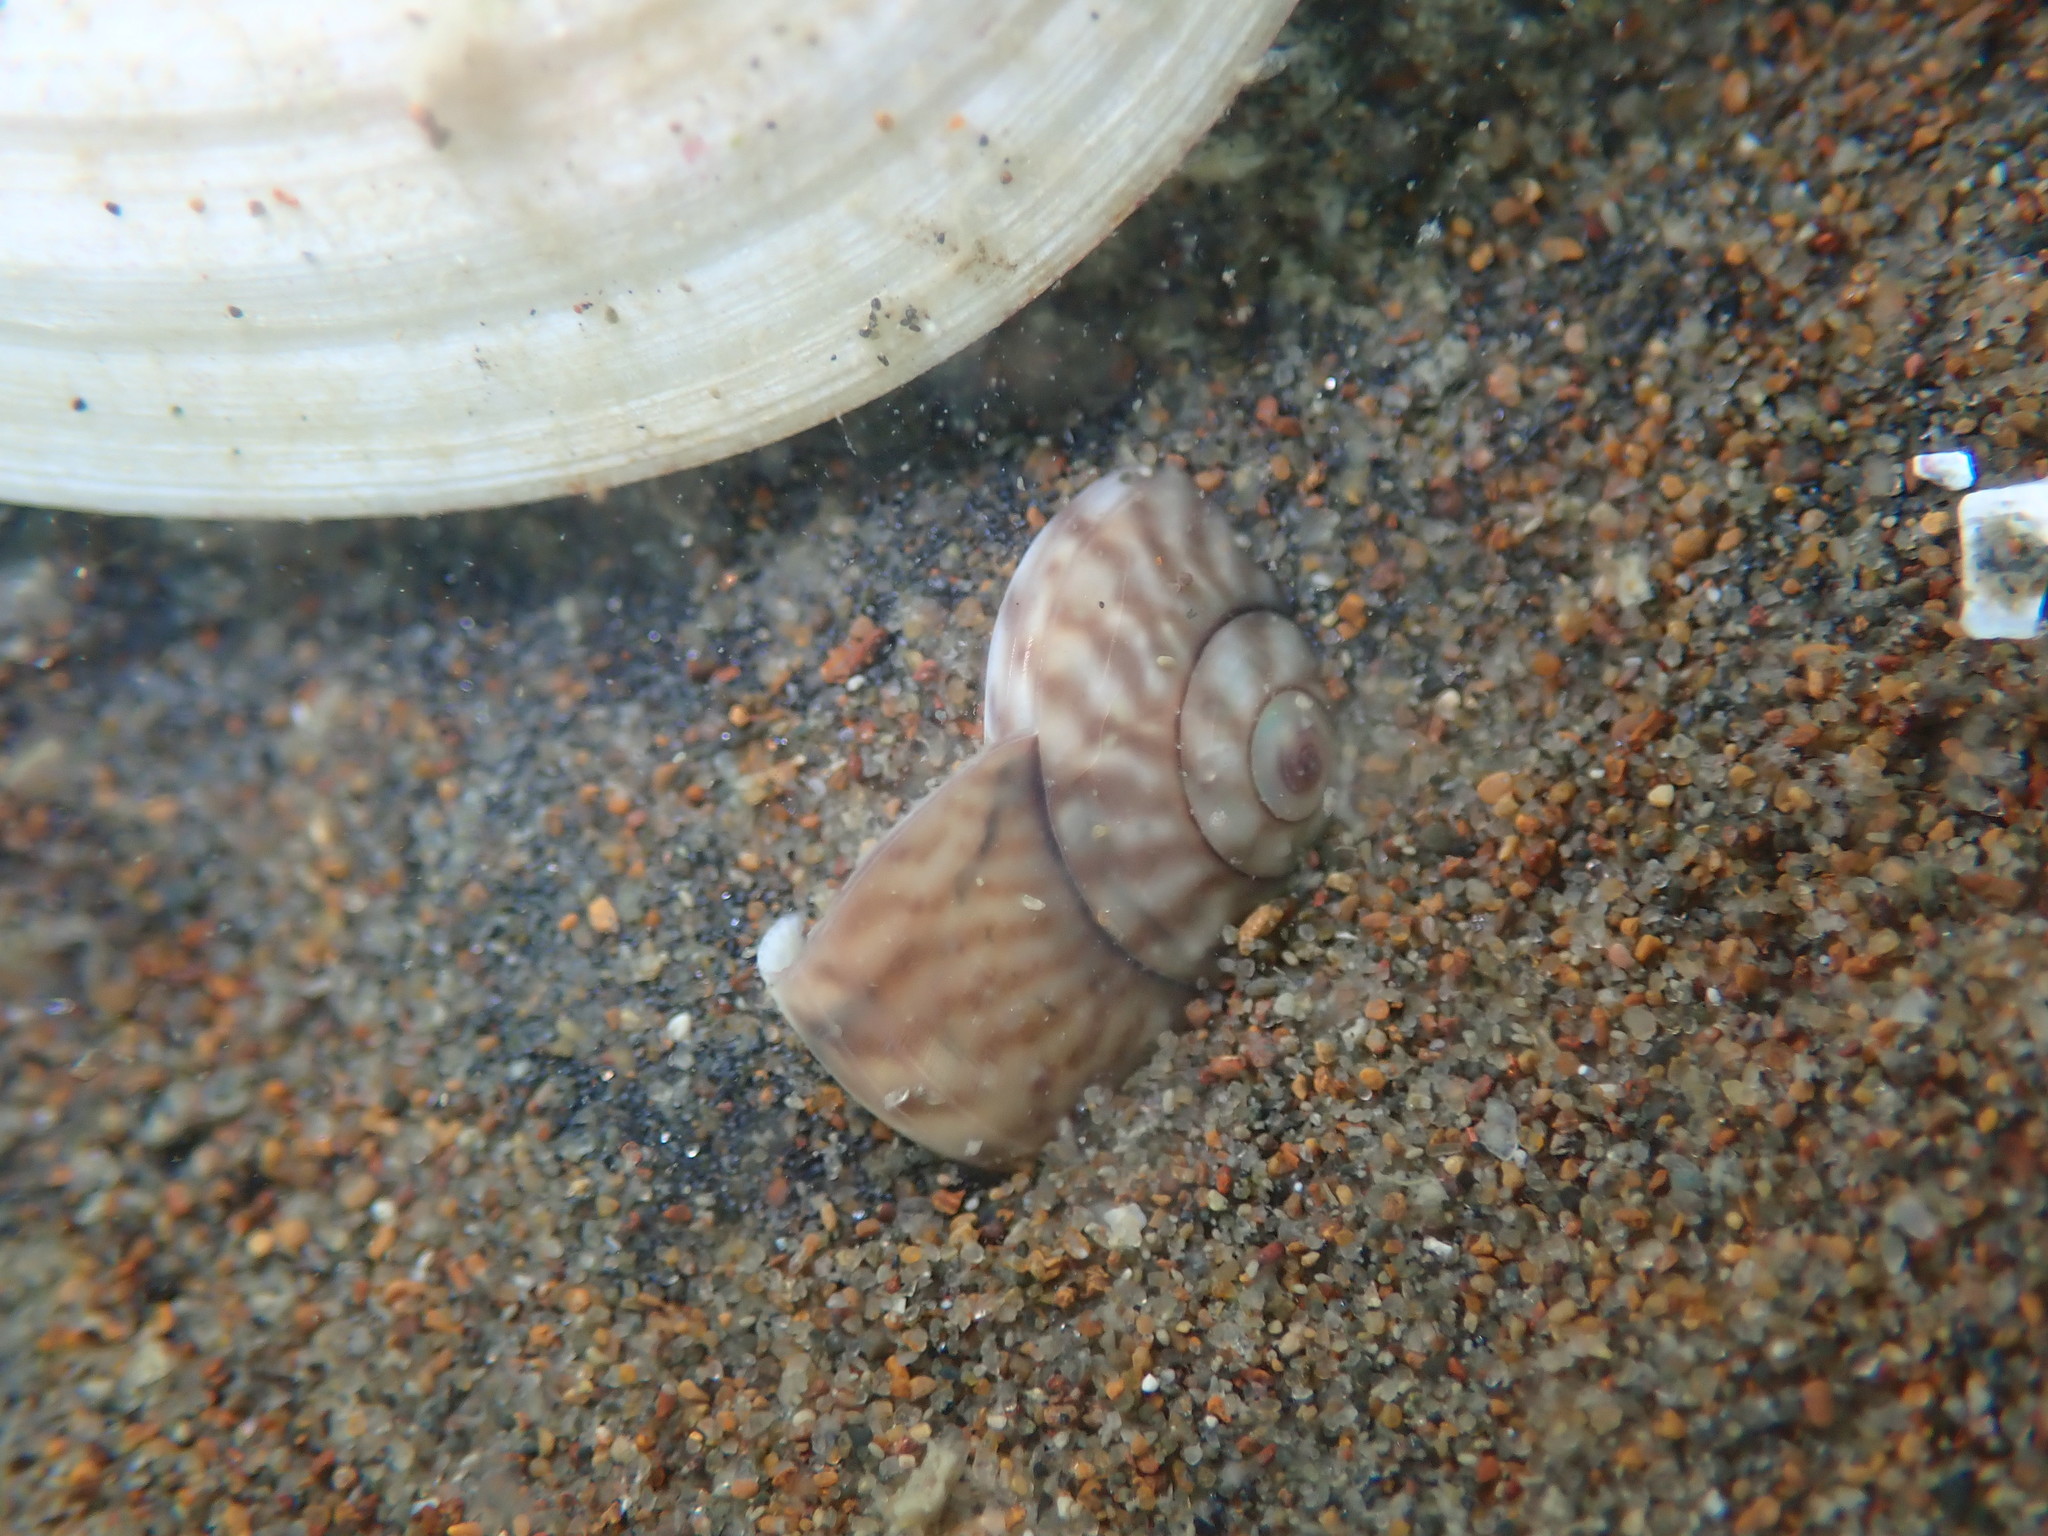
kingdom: Animalia
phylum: Mollusca
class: Gastropoda
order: Trochida
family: Trochidae
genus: Zethalia
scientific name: Zethalia zelandica
